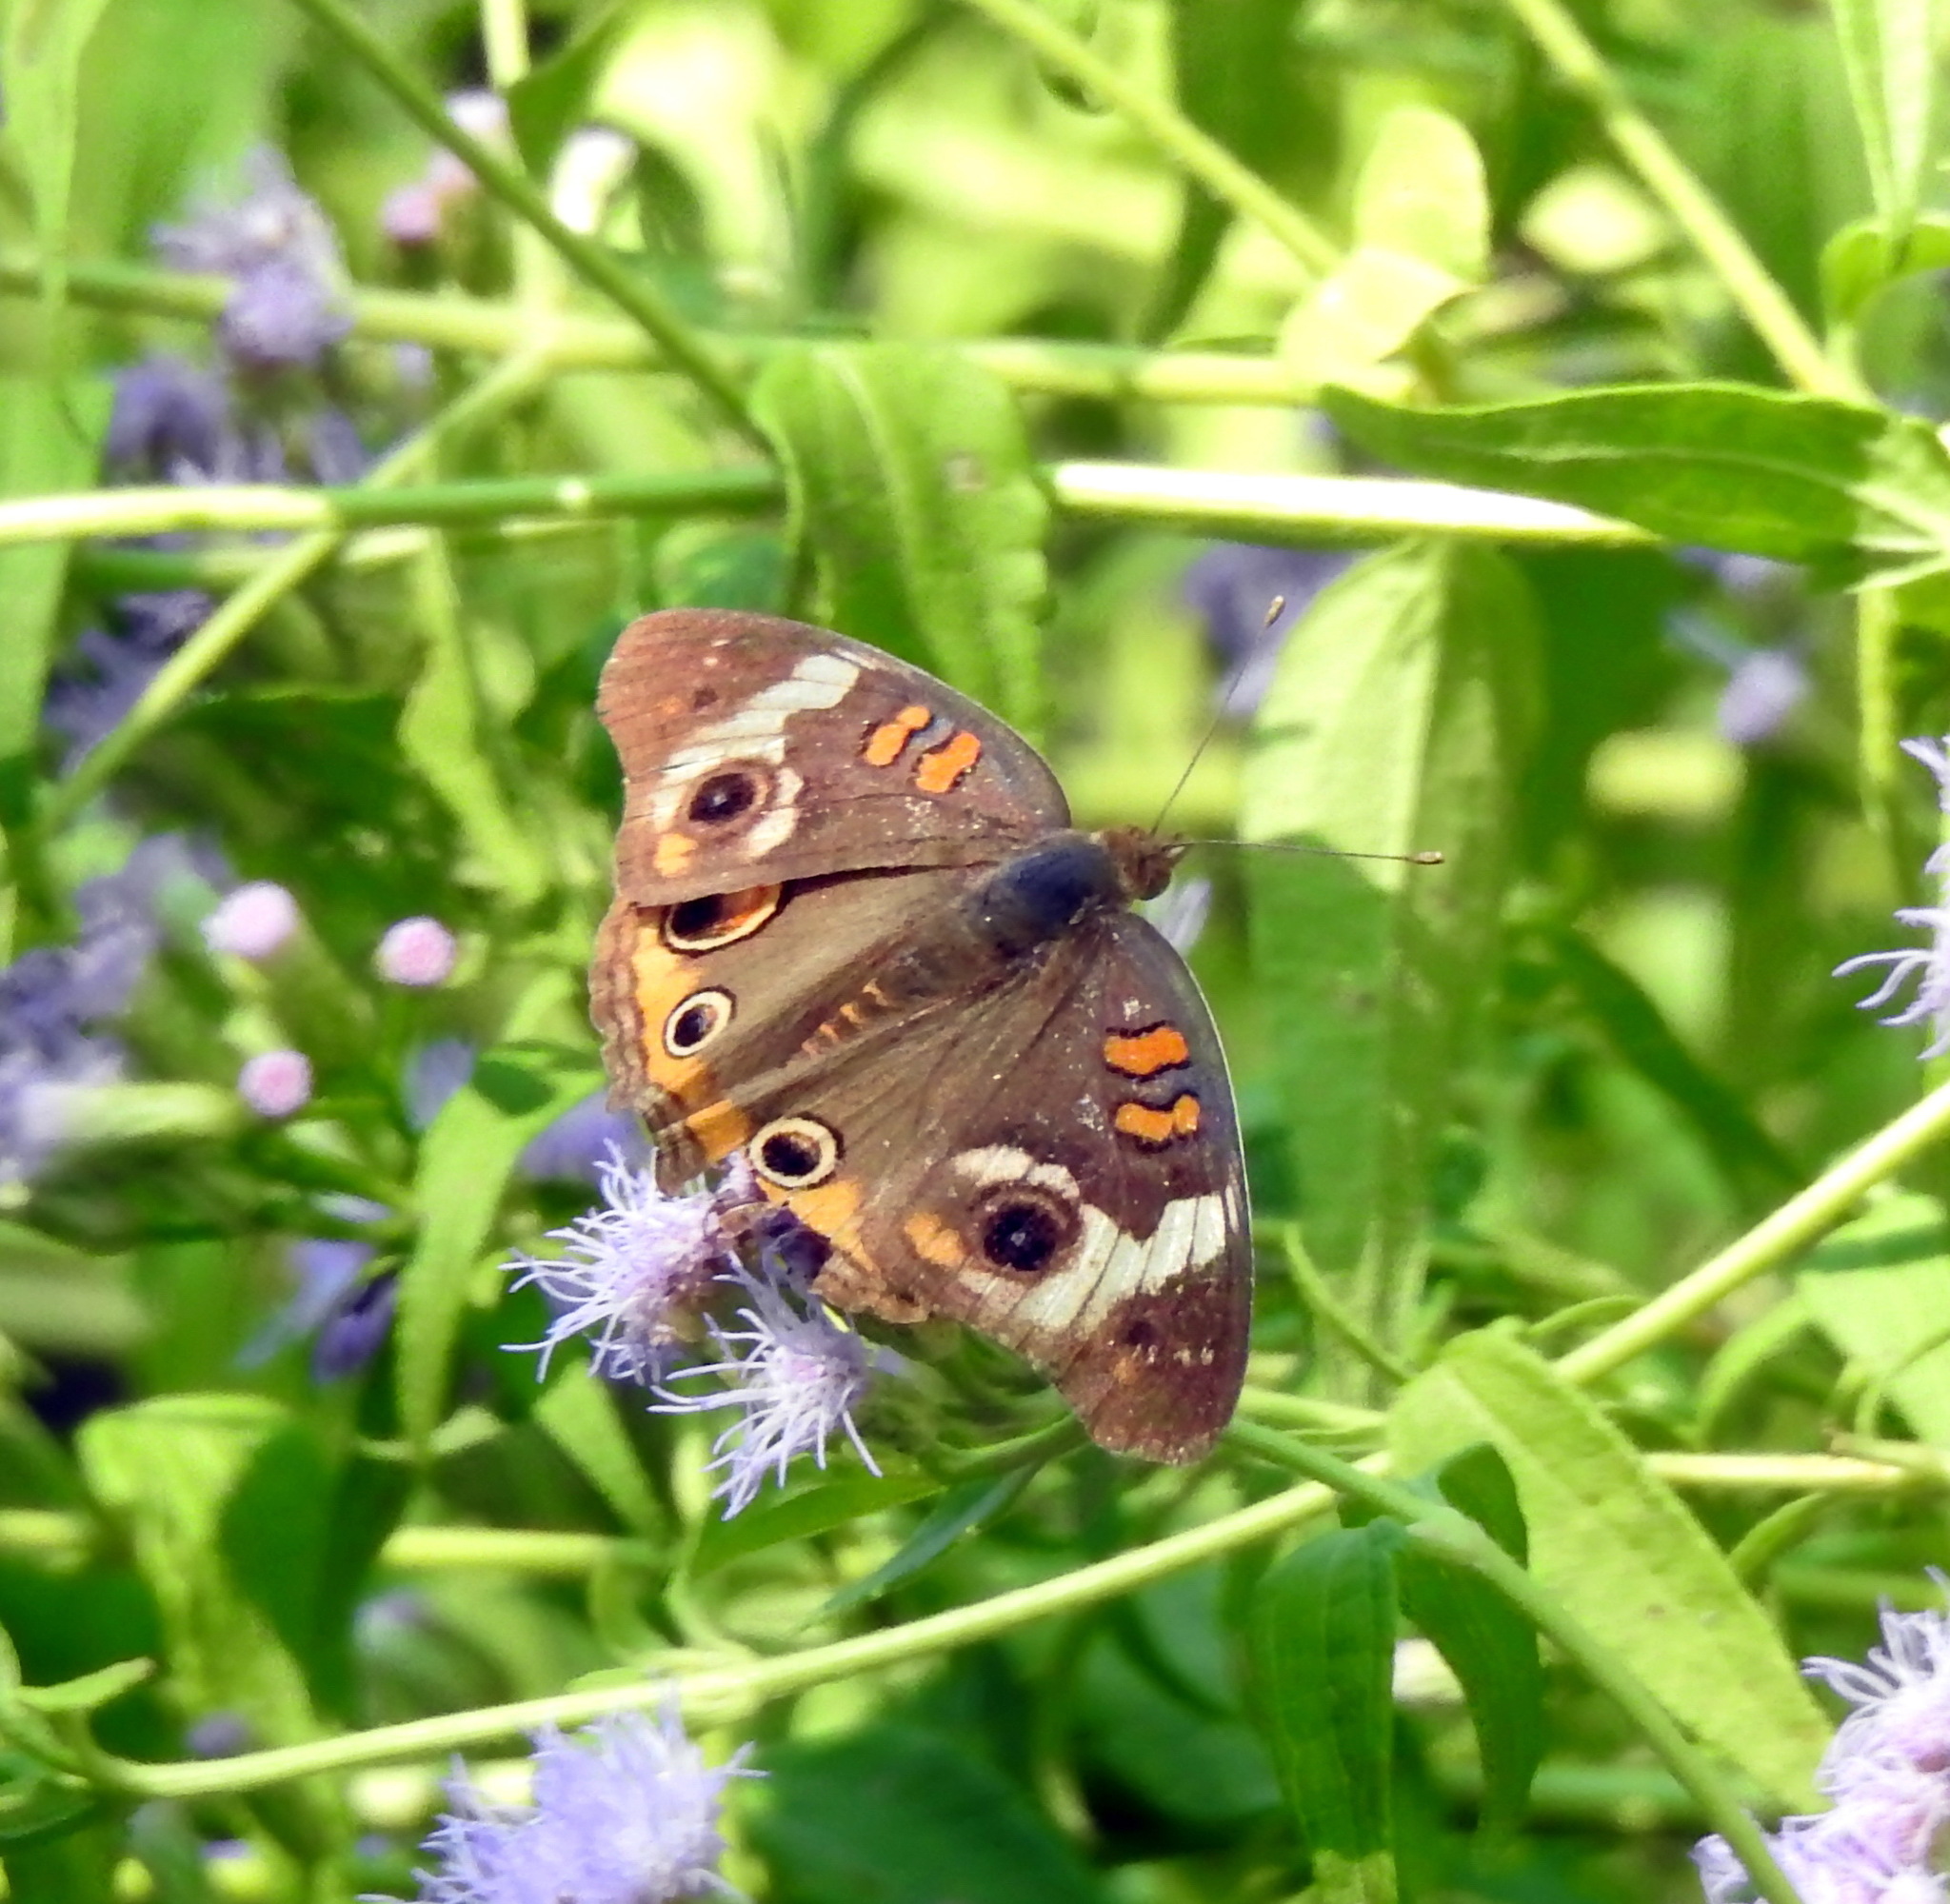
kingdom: Animalia
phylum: Arthropoda
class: Insecta
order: Lepidoptera
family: Nymphalidae
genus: Junonia
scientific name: Junonia coenia
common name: Common buckeye
